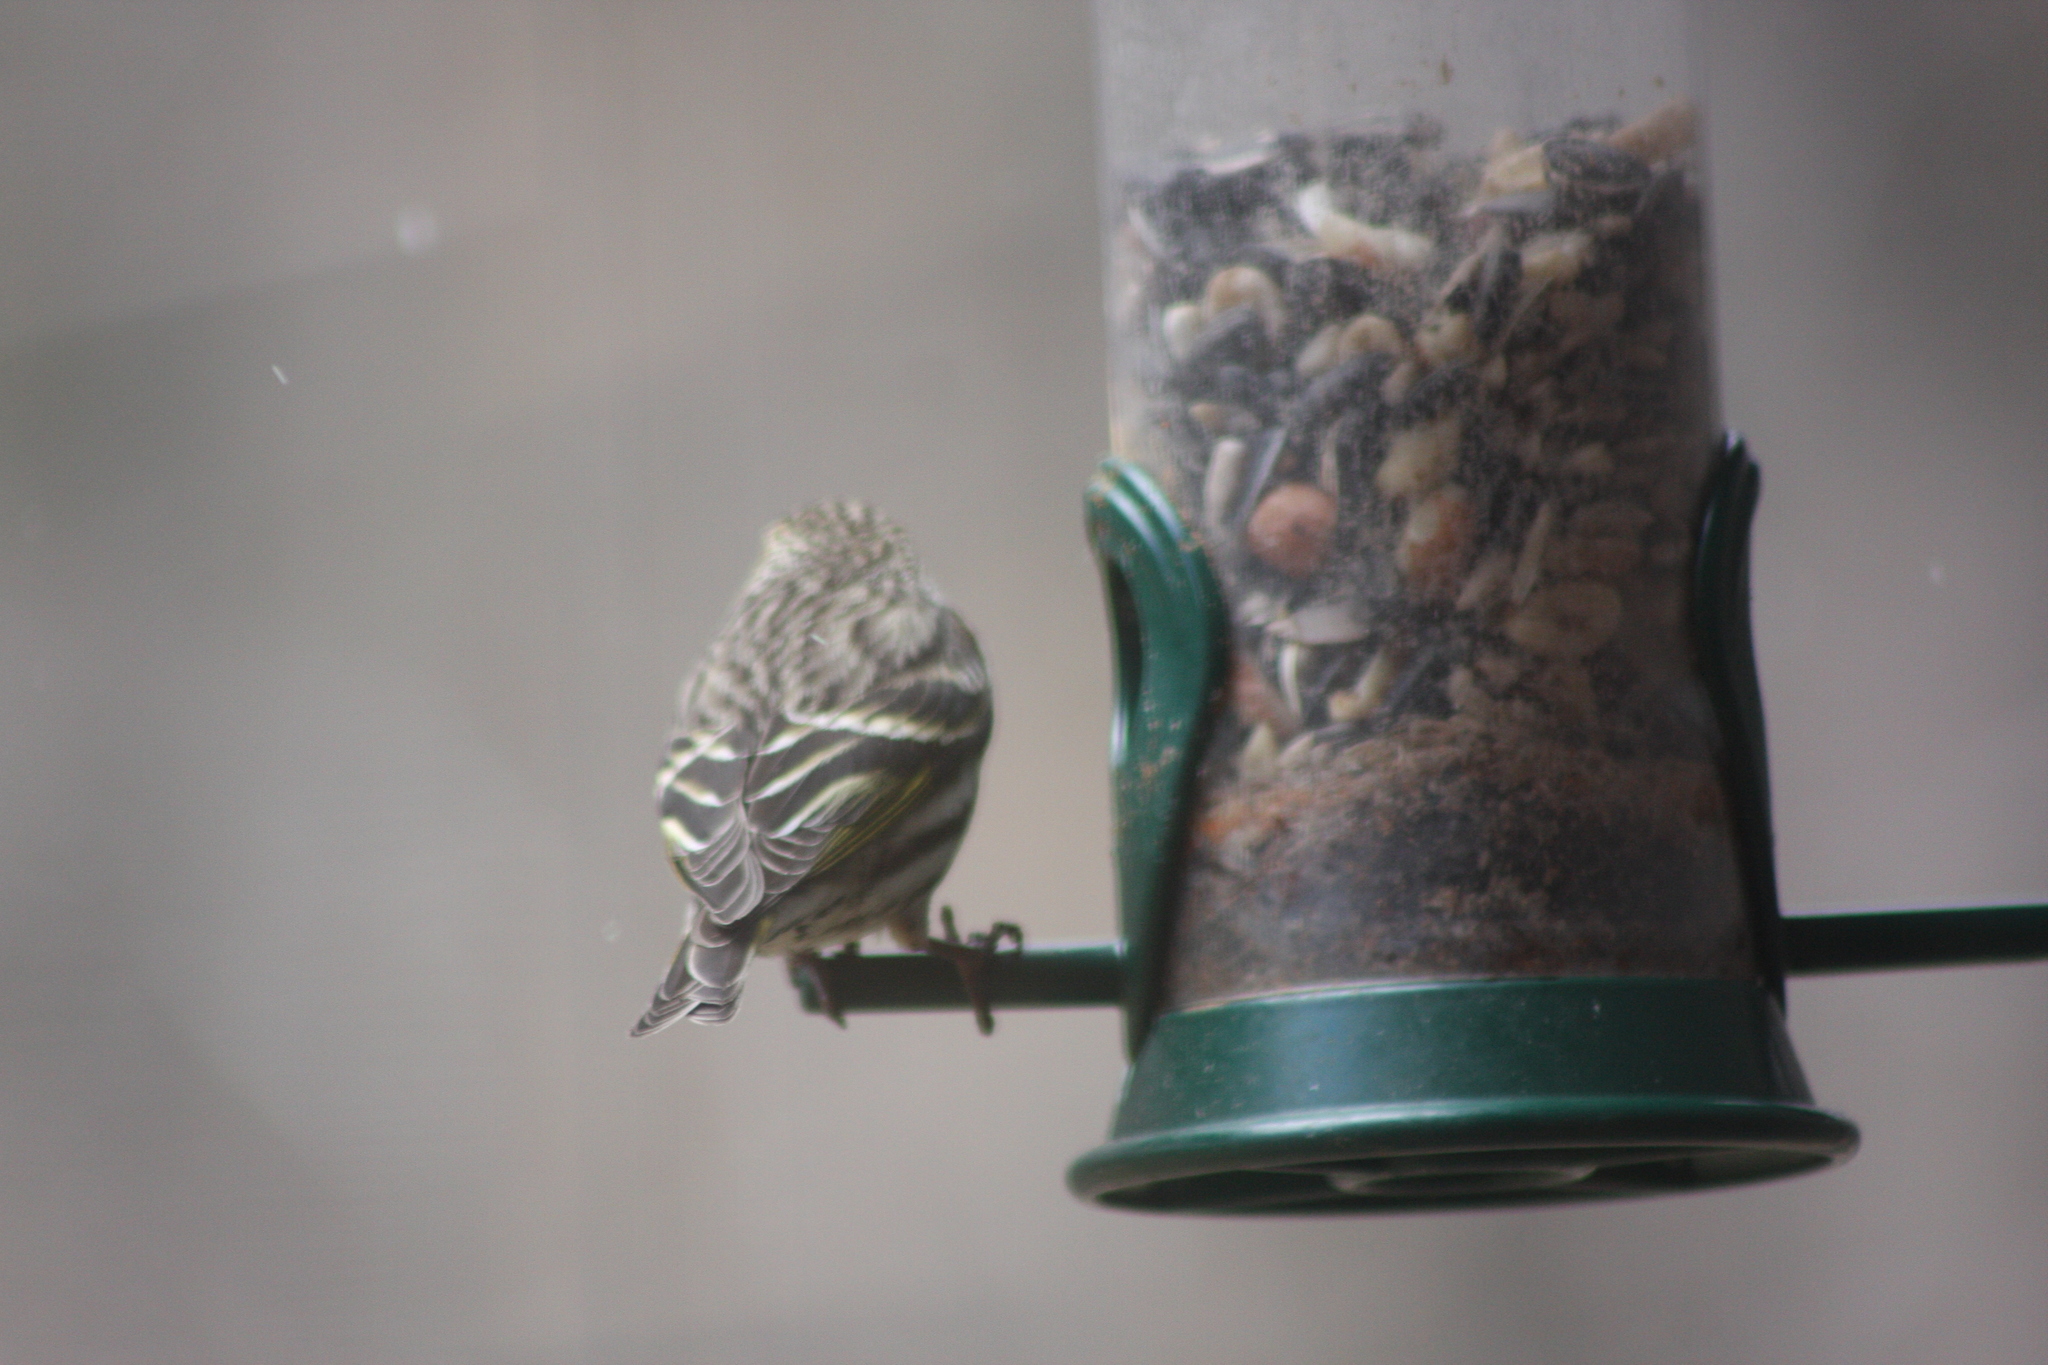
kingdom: Animalia
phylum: Chordata
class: Aves
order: Passeriformes
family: Fringillidae
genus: Spinus
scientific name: Spinus pinus
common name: Pine siskin
